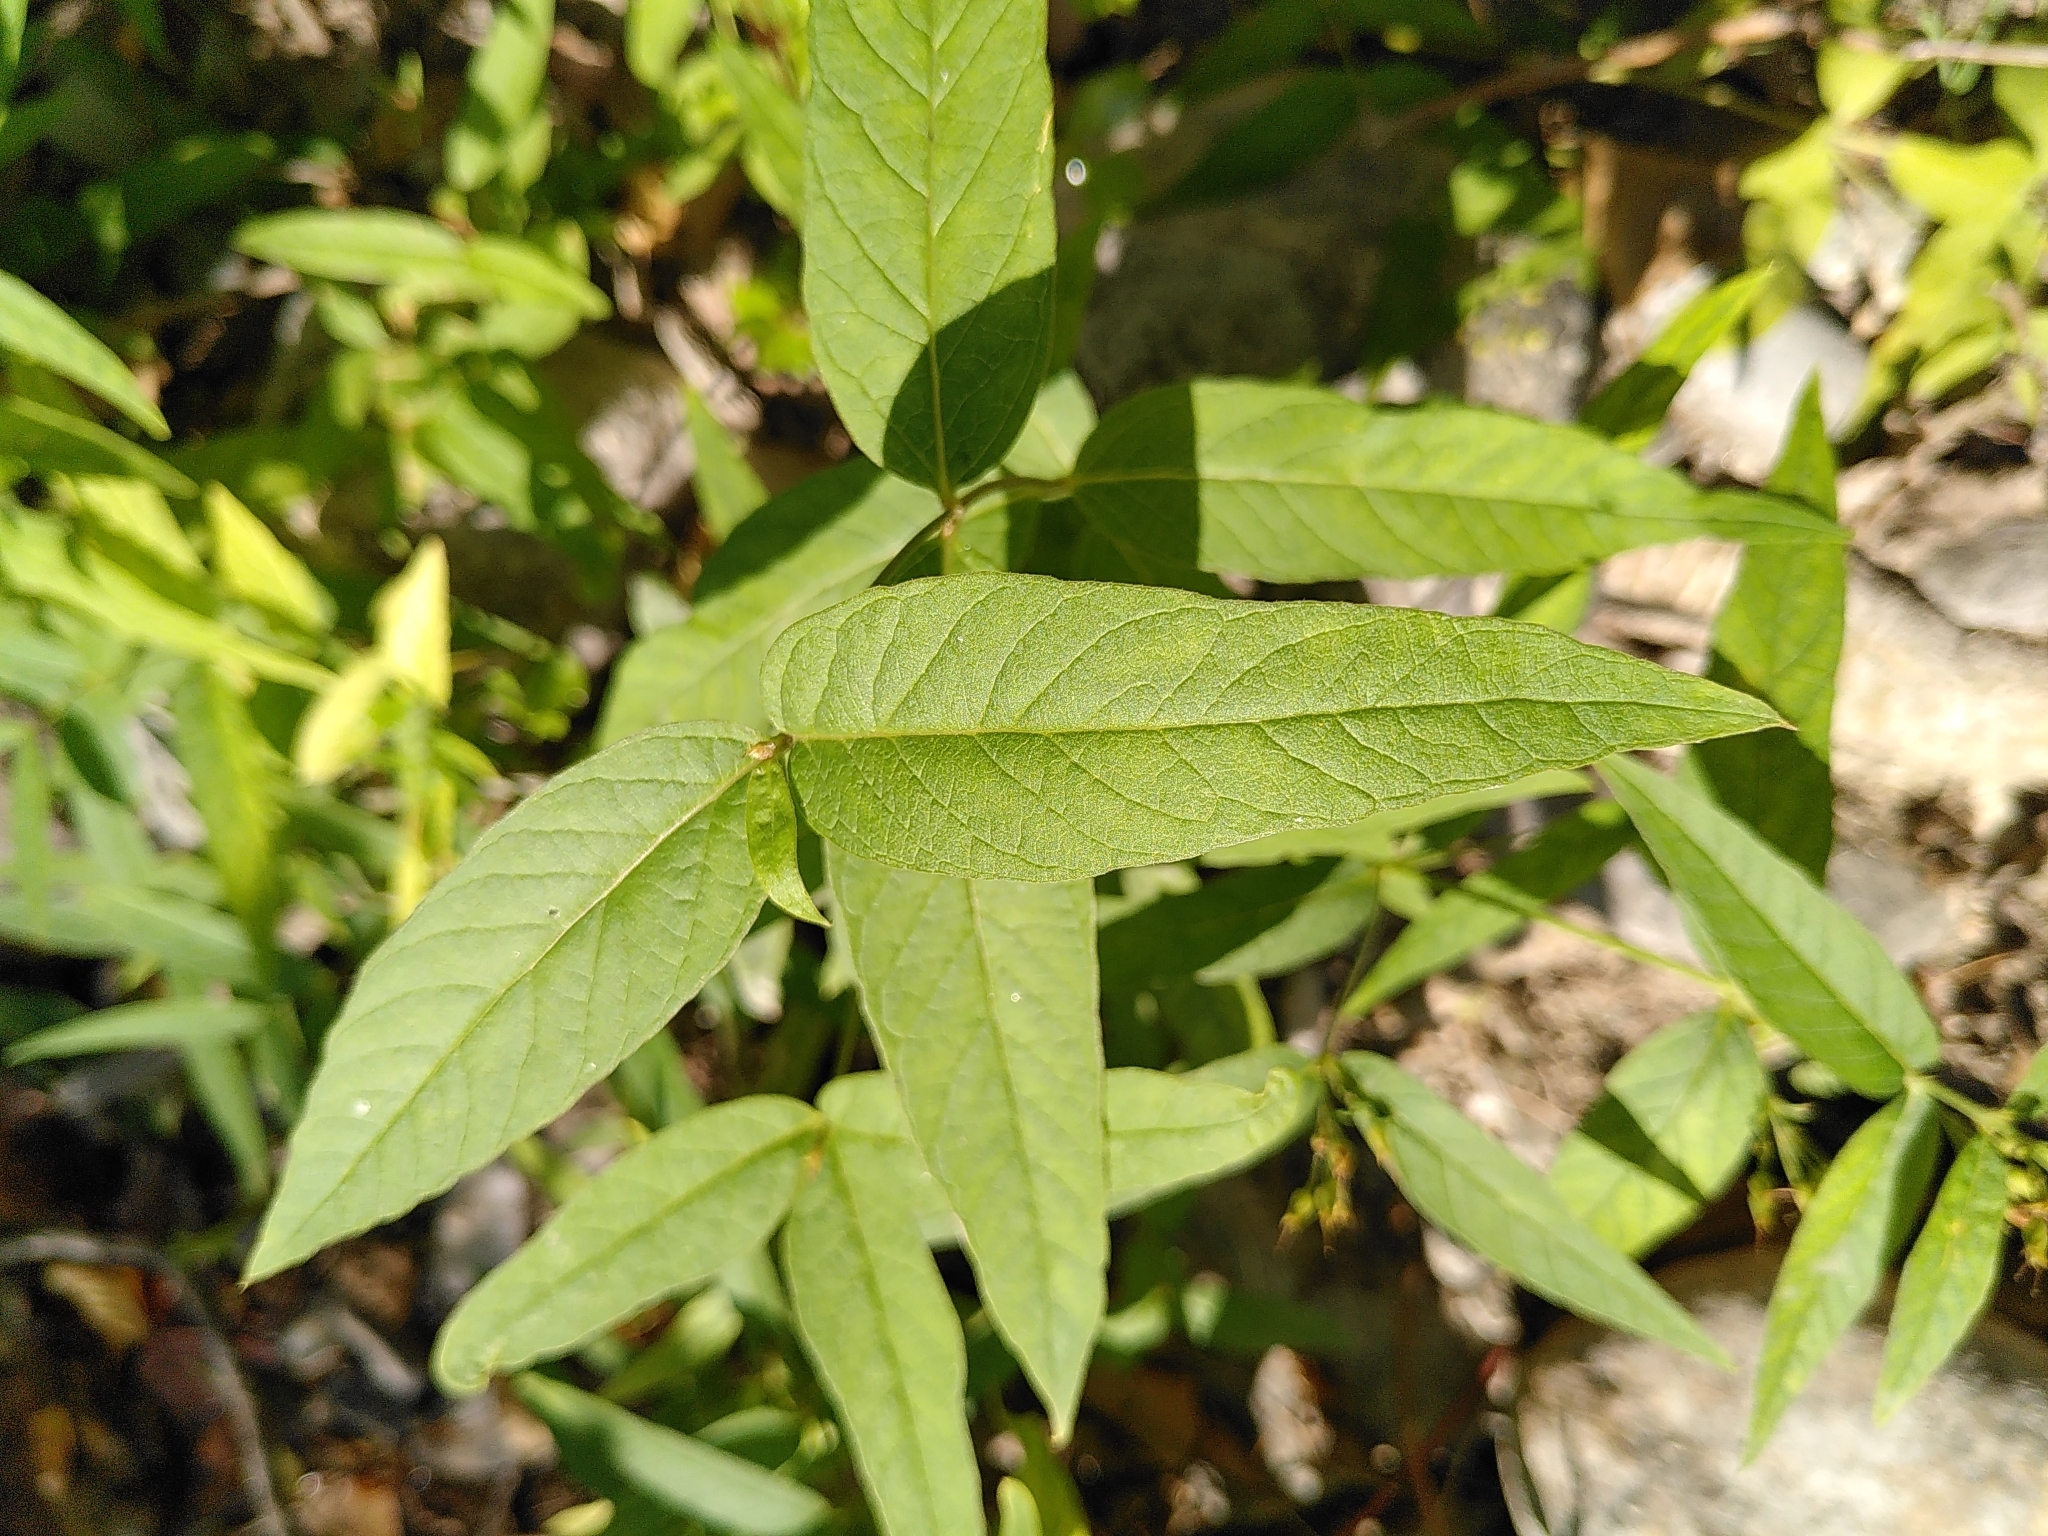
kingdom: Plantae
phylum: Tracheophyta
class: Magnoliopsida
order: Ericales
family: Primulaceae
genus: Lysimachia
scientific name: Lysimachia vulgaris
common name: Yellow loosestrife
